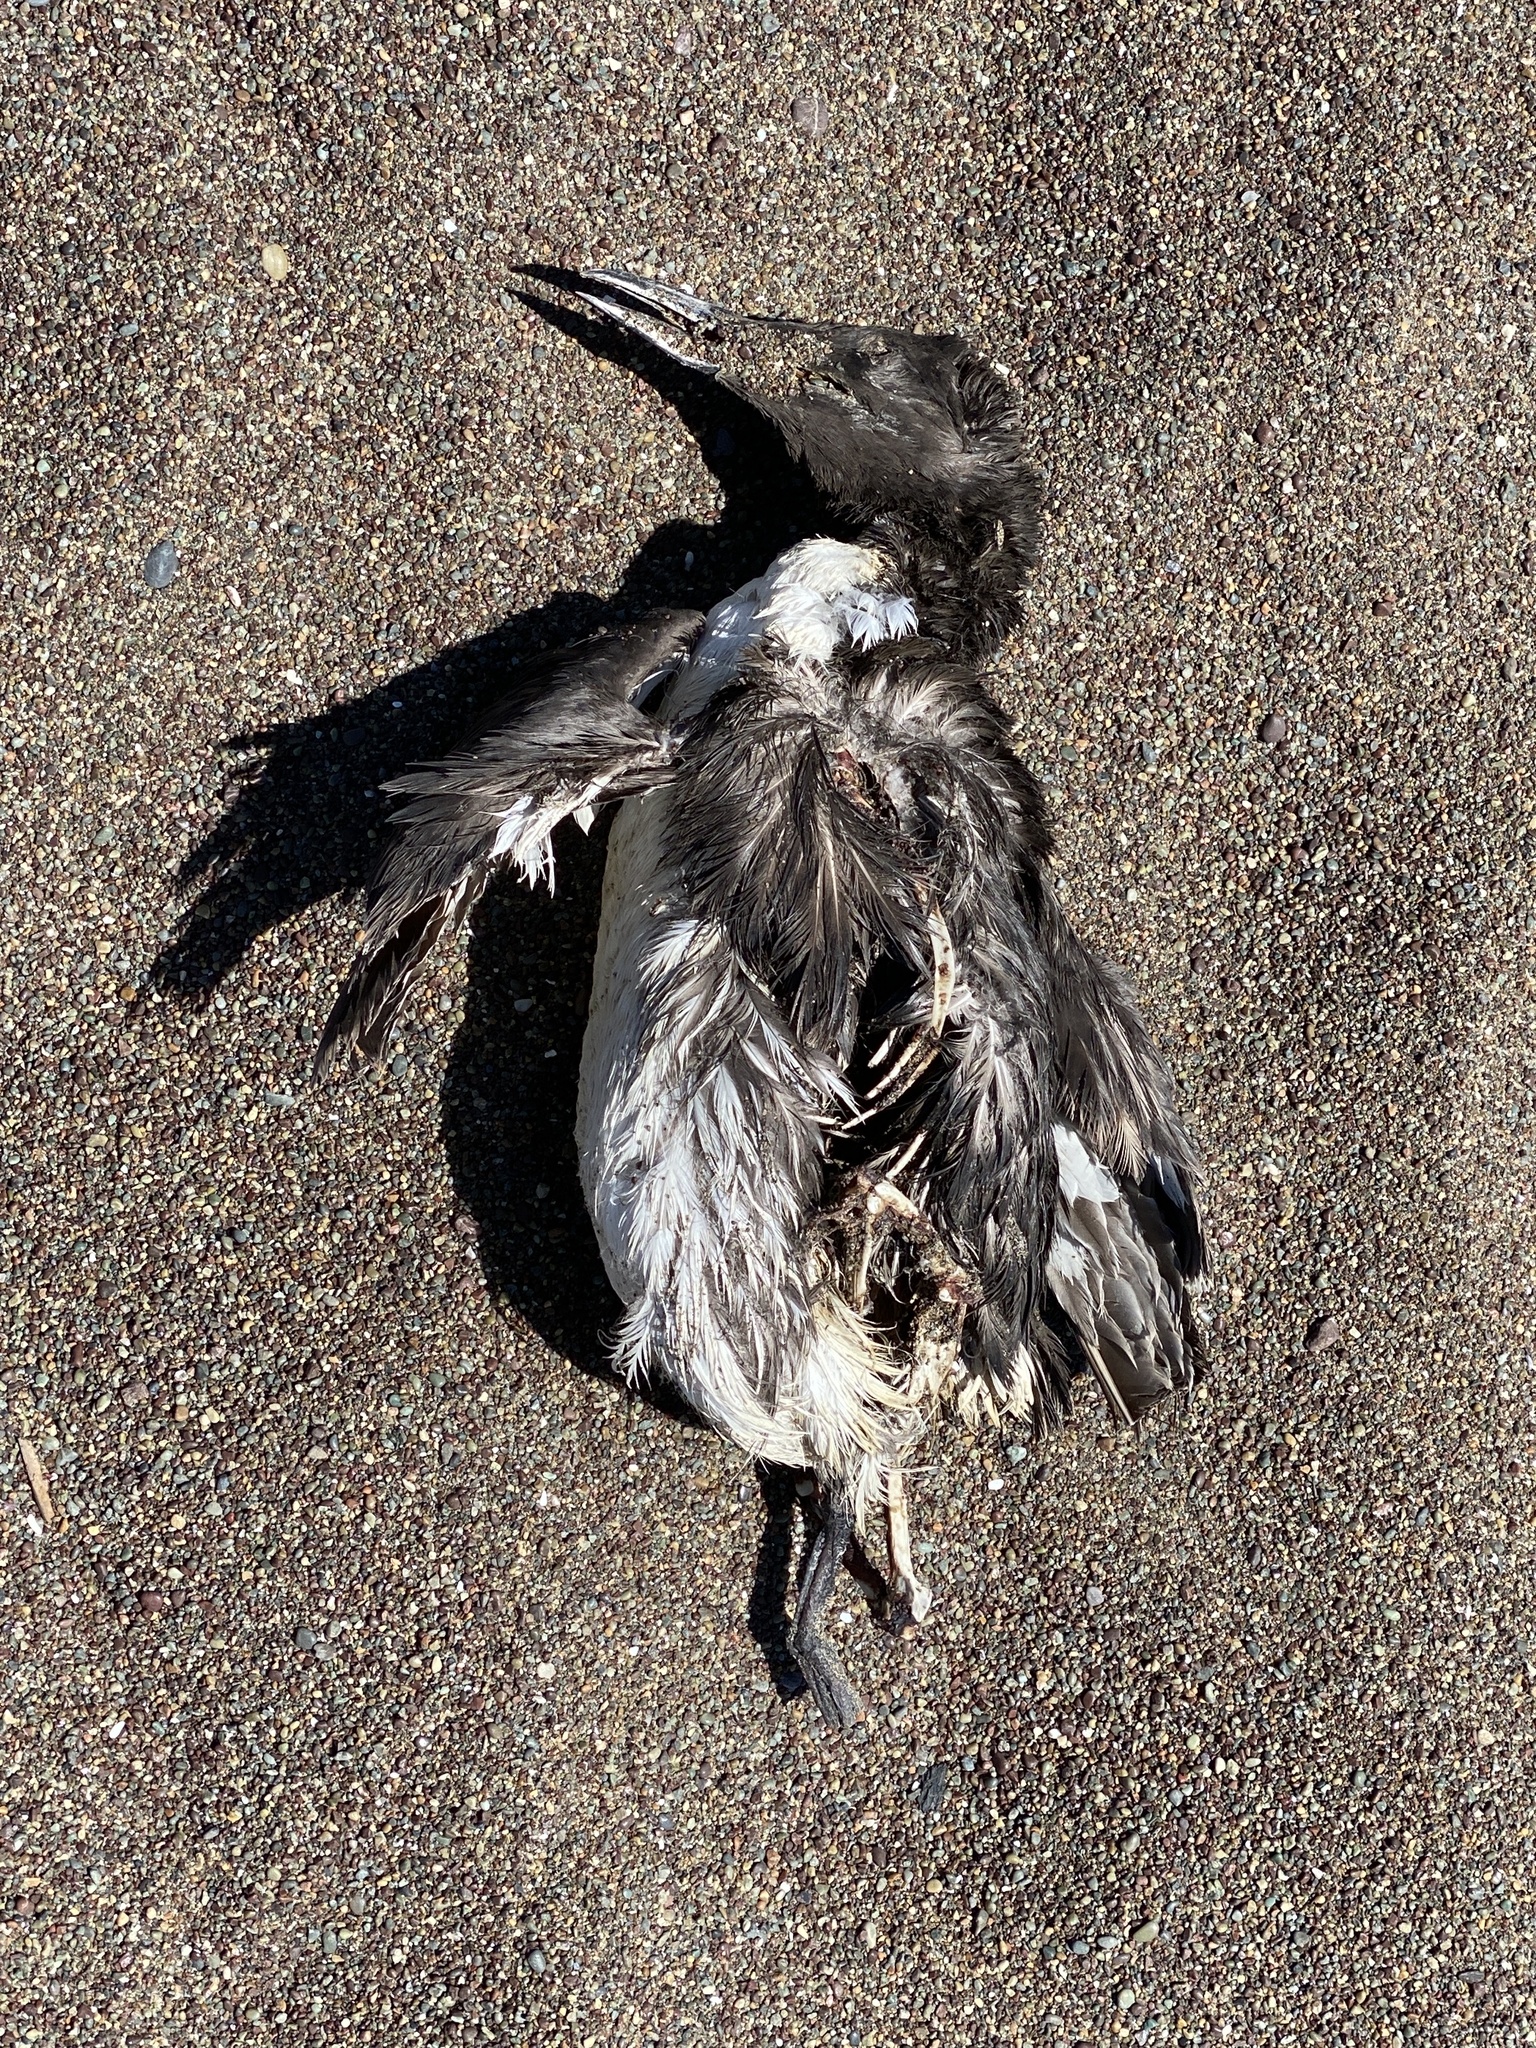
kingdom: Animalia
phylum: Chordata
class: Aves
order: Charadriiformes
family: Alcidae
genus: Uria
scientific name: Uria aalge
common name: Common murre
